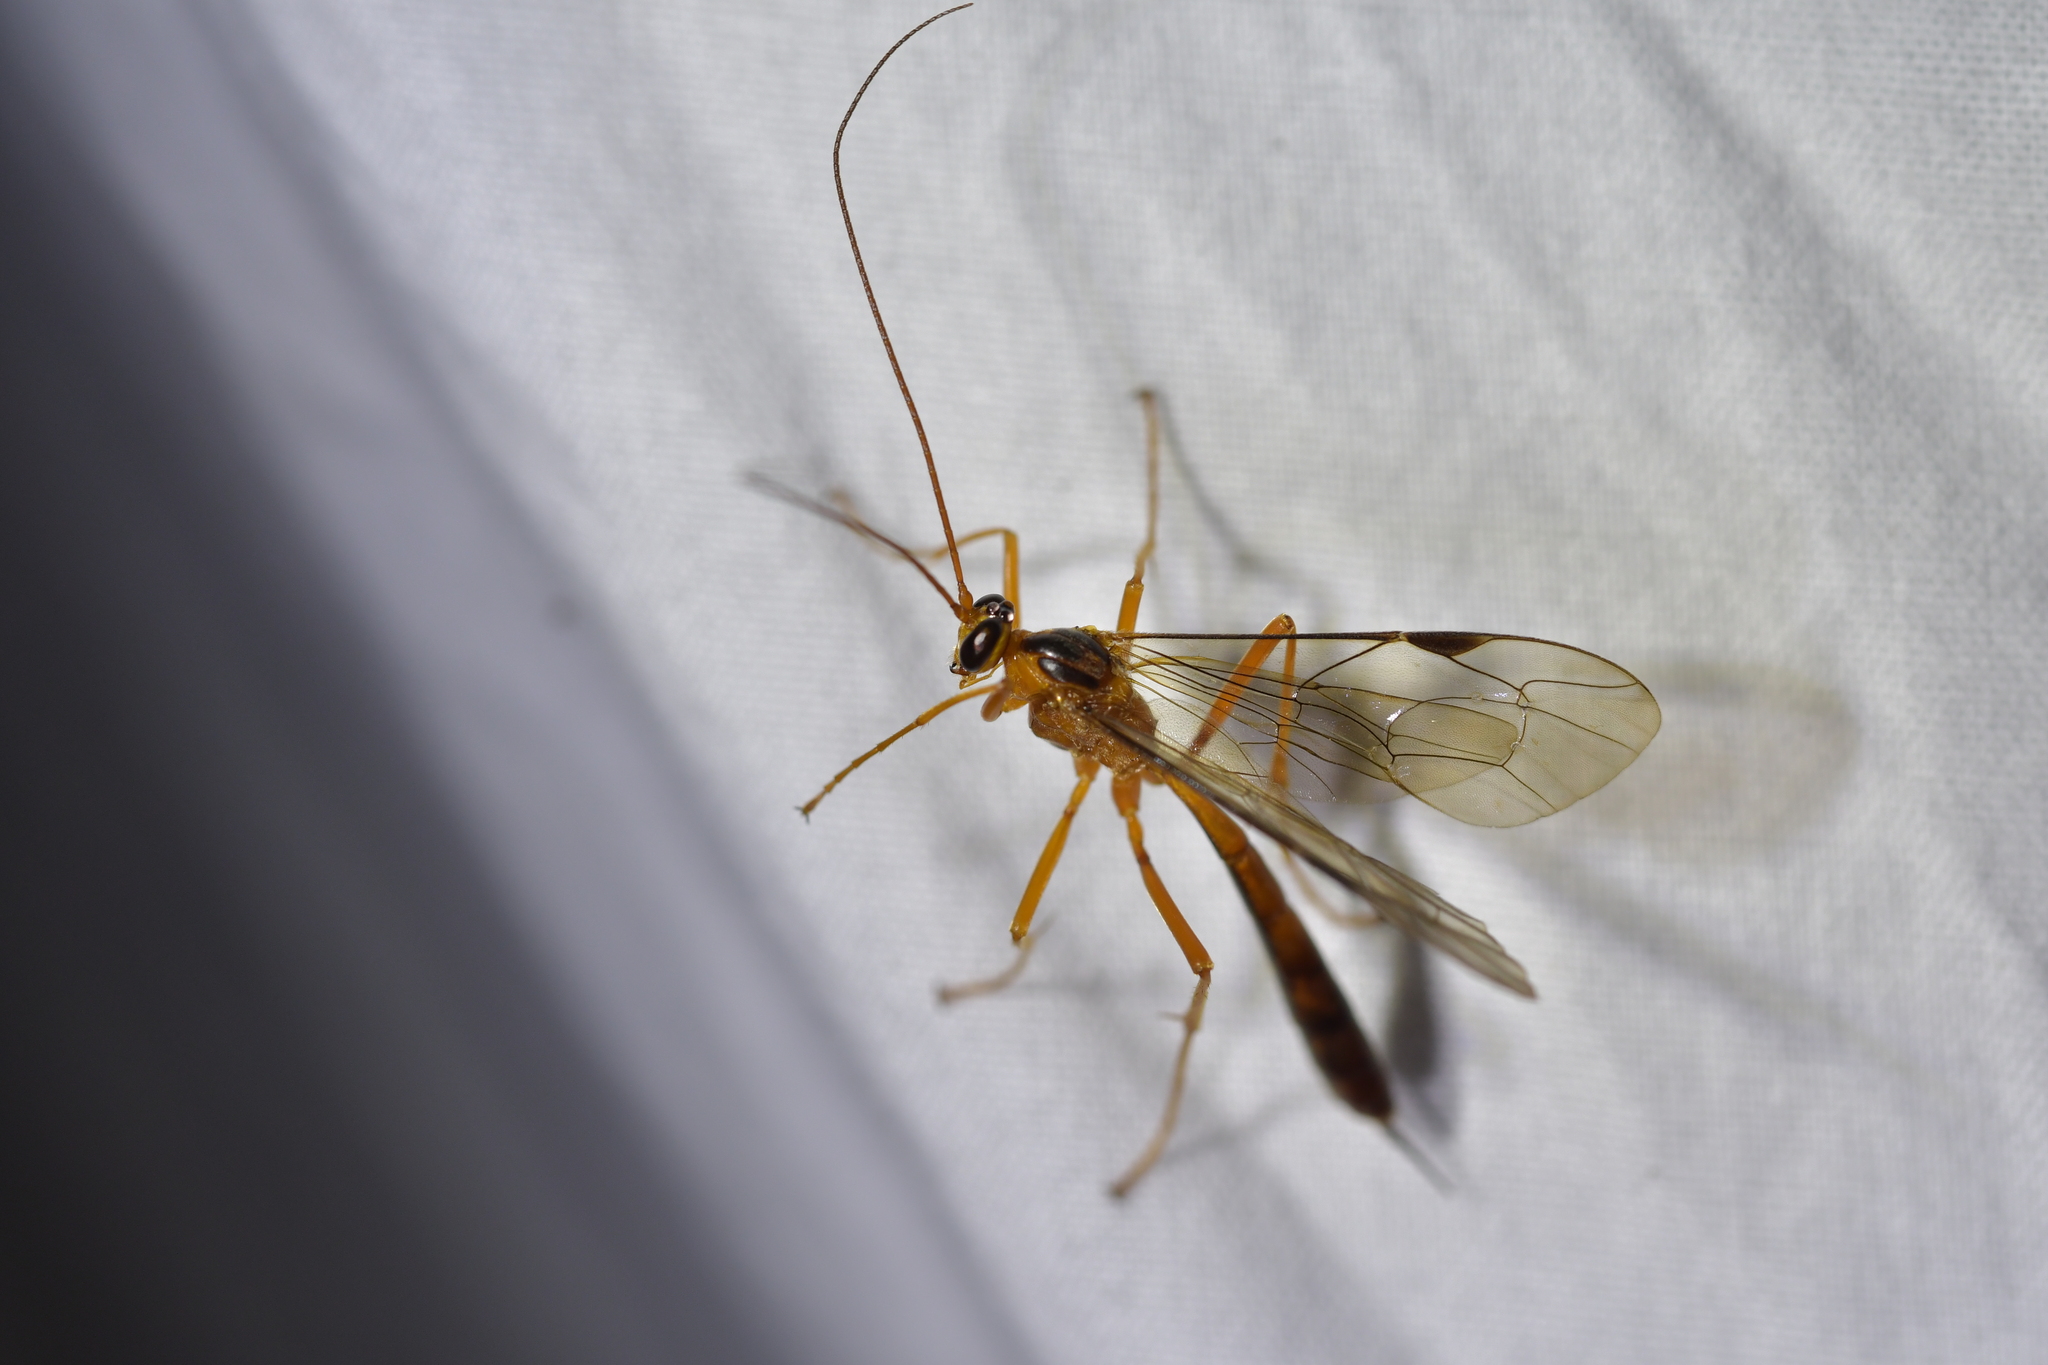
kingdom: Animalia
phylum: Arthropoda
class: Insecta
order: Hymenoptera
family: Ichneumonidae
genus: Netelia
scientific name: Netelia ephippiata
